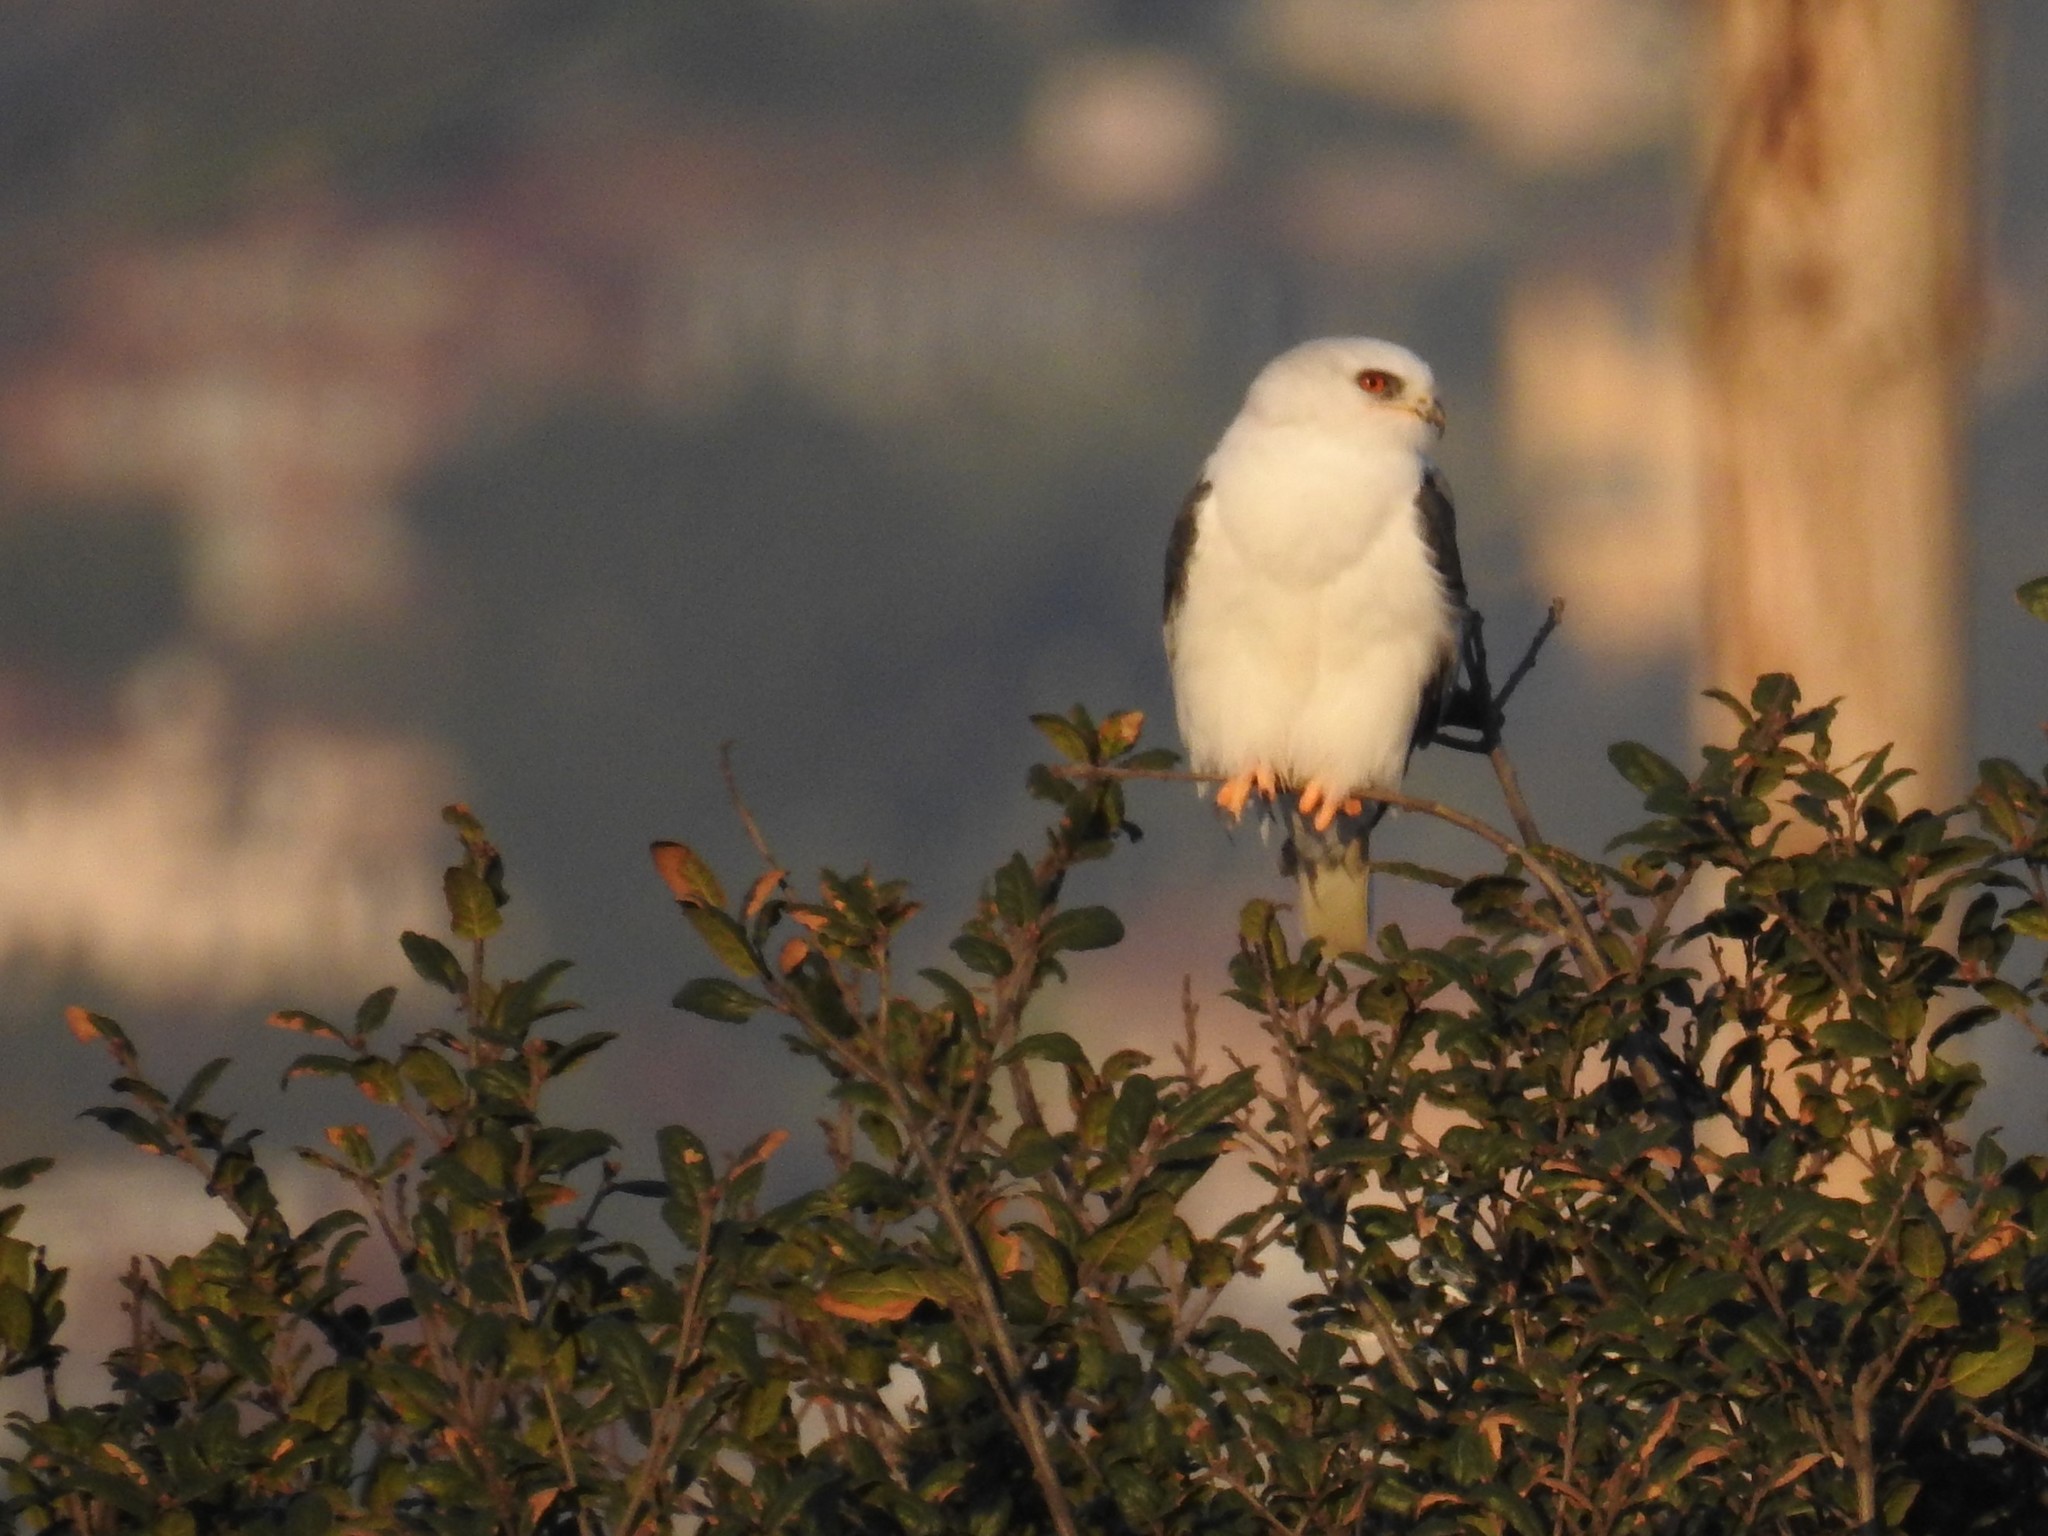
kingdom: Animalia
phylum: Chordata
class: Aves
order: Accipitriformes
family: Accipitridae
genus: Elanus
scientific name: Elanus leucurus
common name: White-tailed kite
